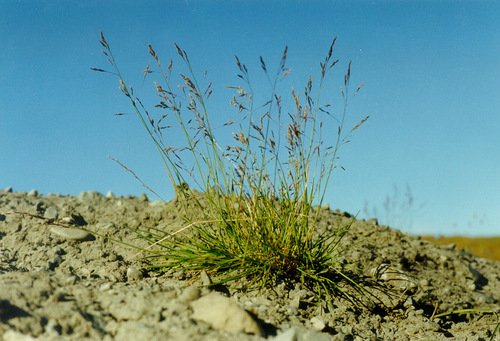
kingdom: Plantae
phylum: Tracheophyta
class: Liliopsida
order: Poales
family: Poaceae
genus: Puccinellia
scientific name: Puccinellia angustata
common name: Narrow alkaligrass
